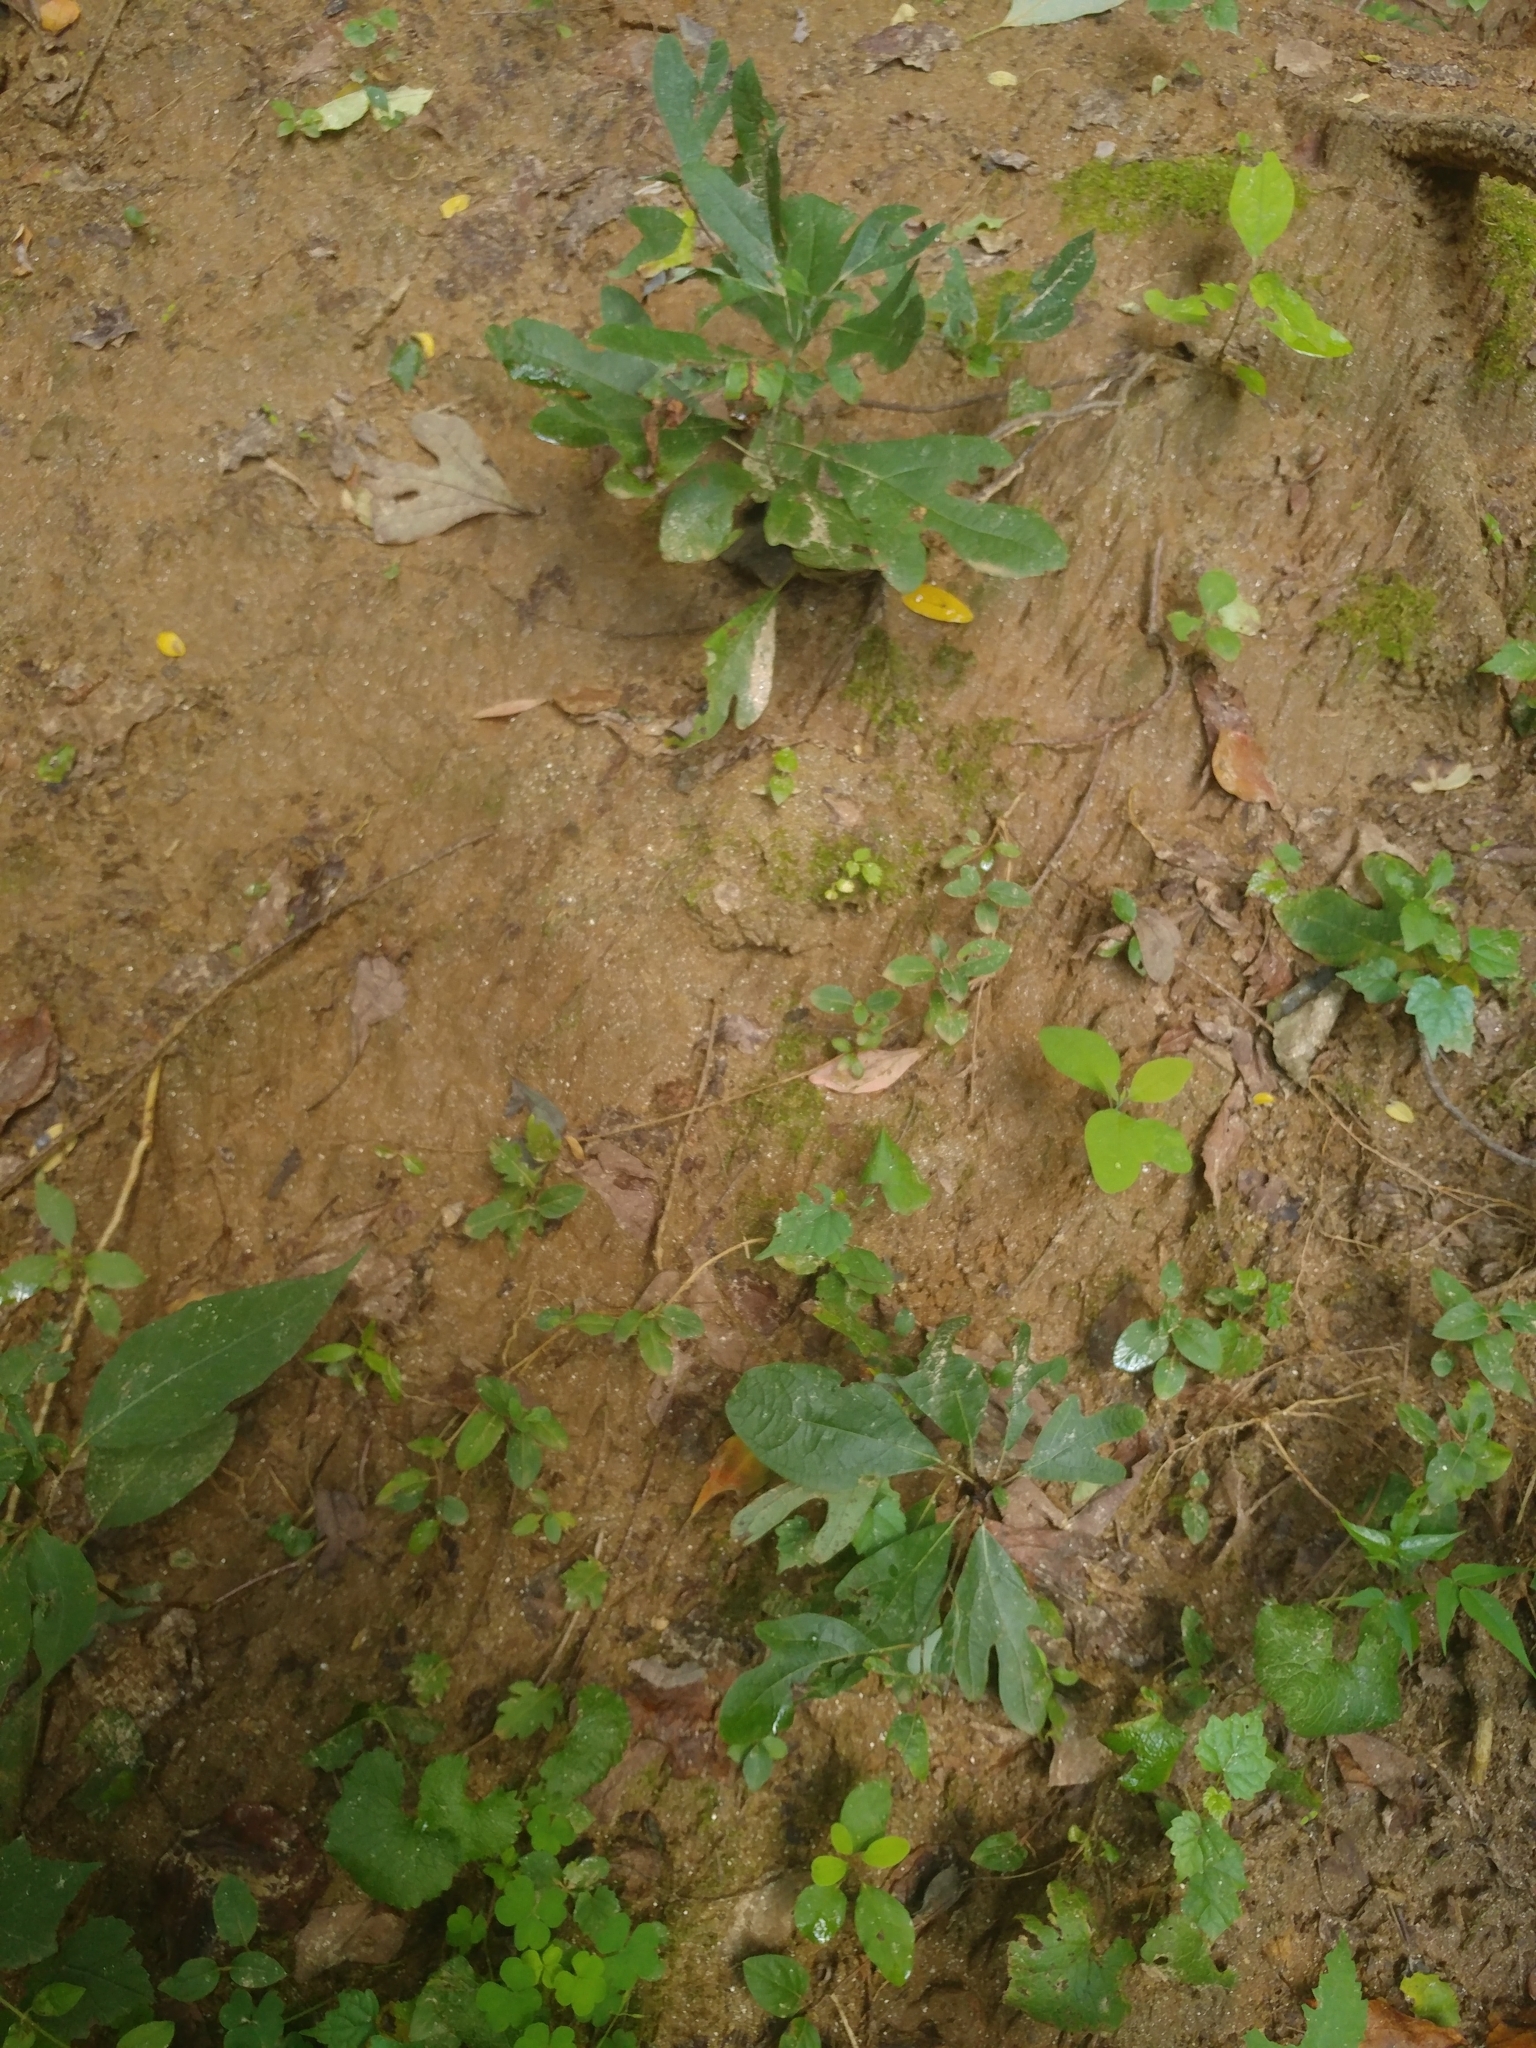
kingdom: Plantae
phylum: Tracheophyta
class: Magnoliopsida
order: Laurales
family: Lauraceae
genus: Sassafras
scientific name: Sassafras albidum
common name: Sassafras
